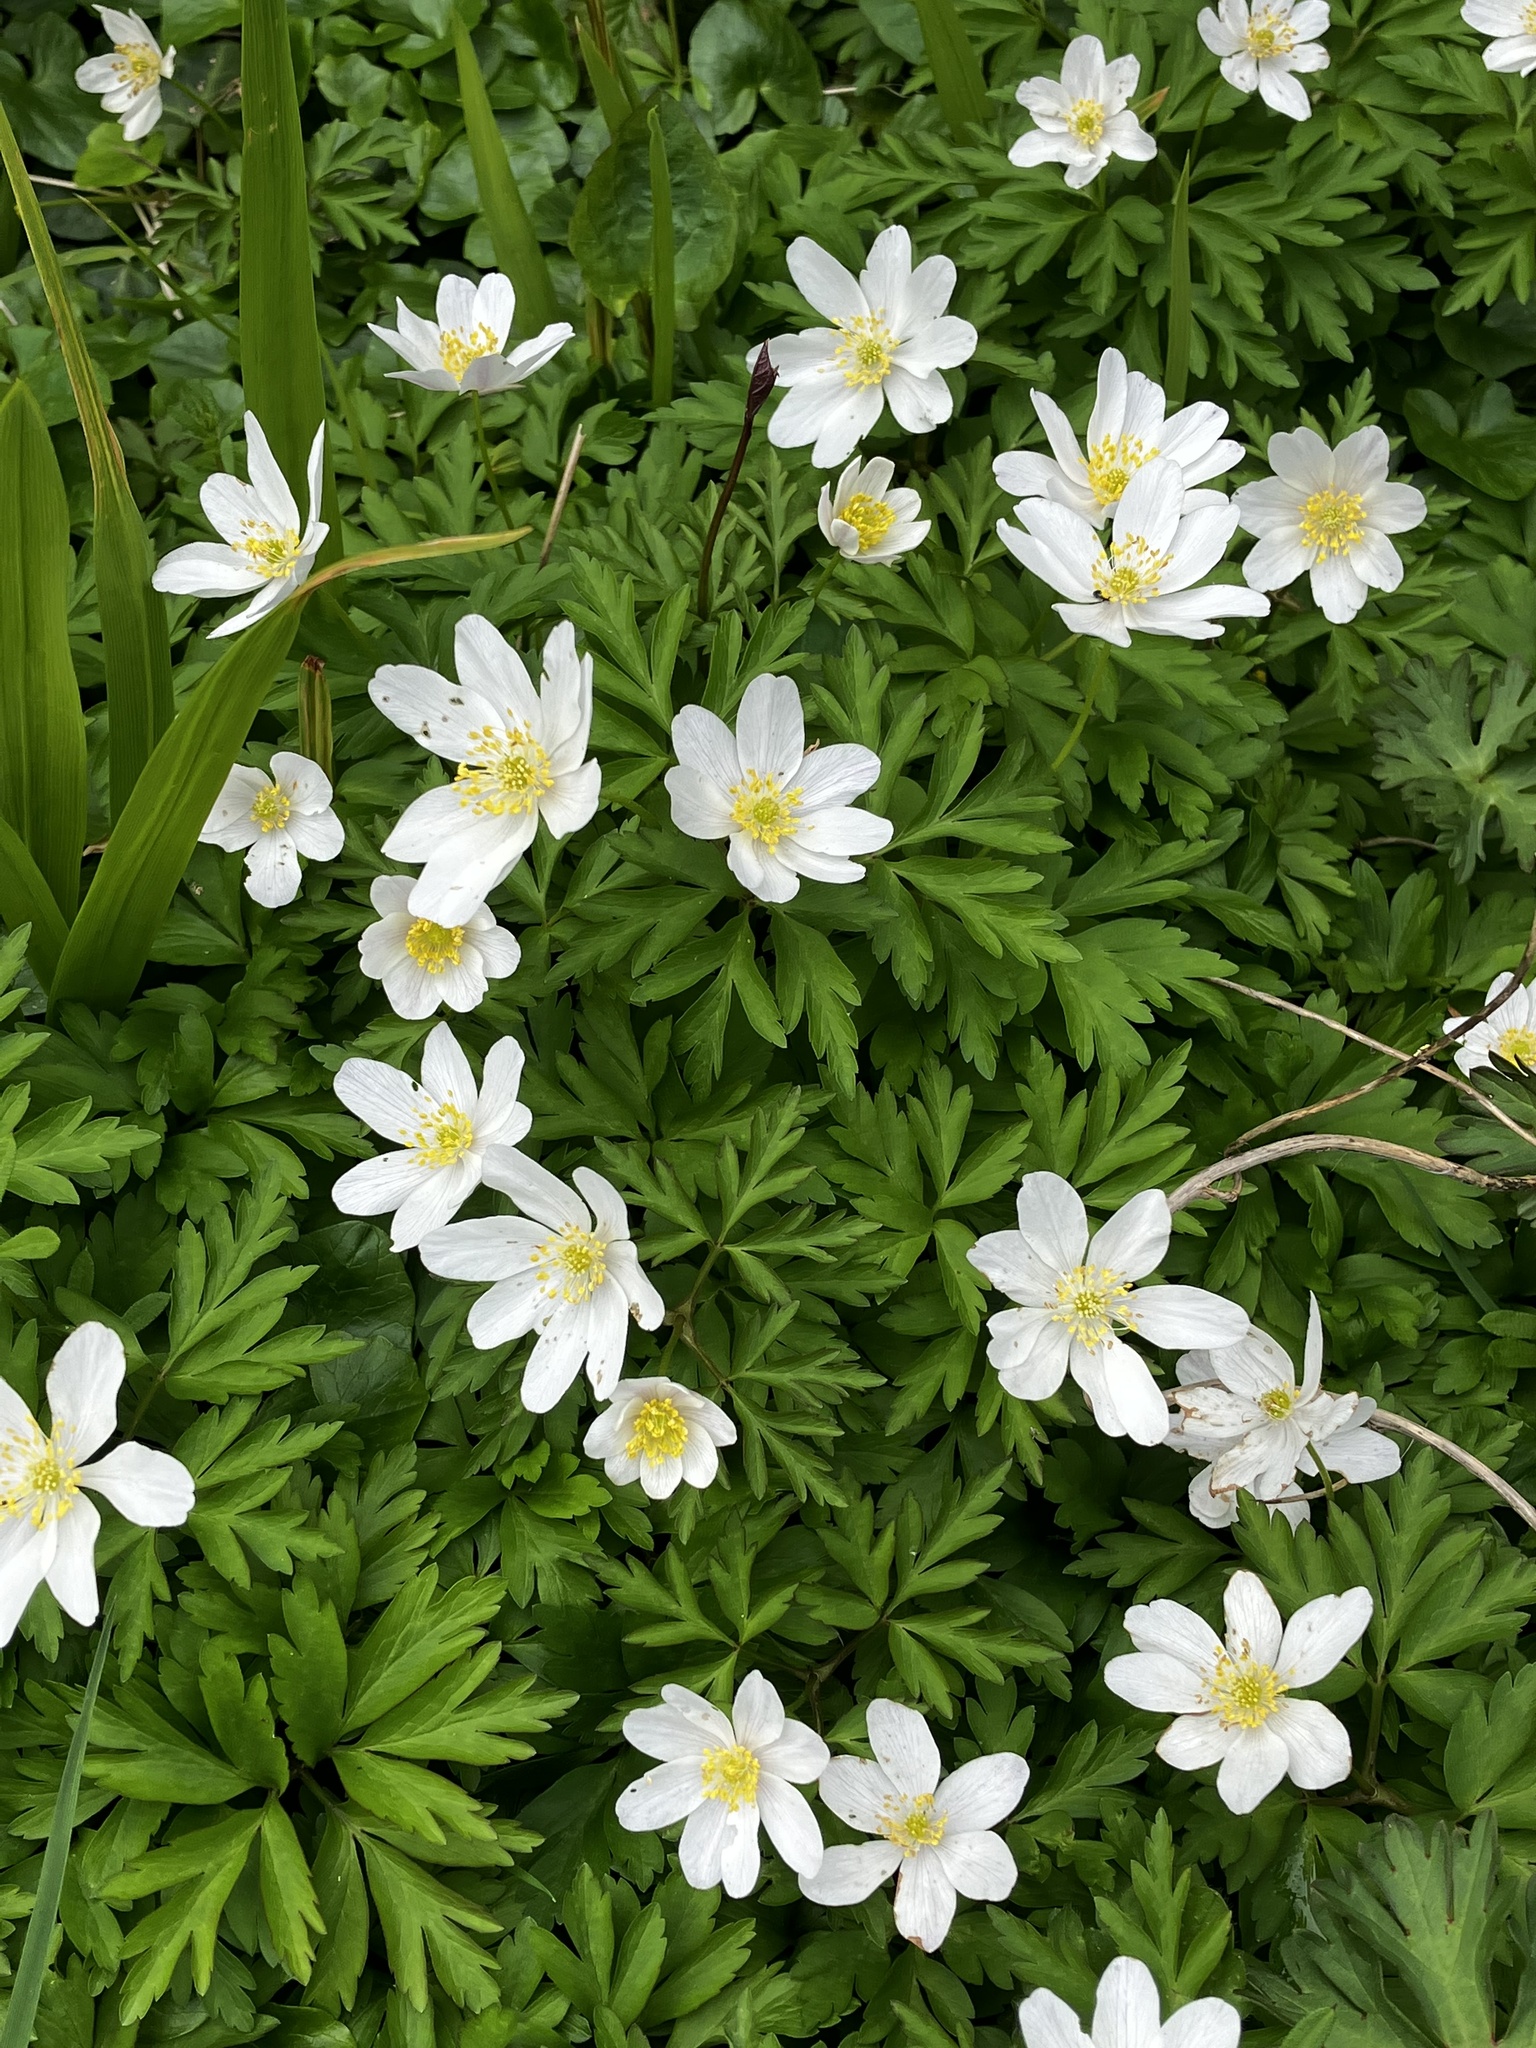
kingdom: Plantae
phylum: Tracheophyta
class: Magnoliopsida
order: Ranunculales
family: Ranunculaceae
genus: Anemone
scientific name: Anemone nemorosa
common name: Wood anemone
